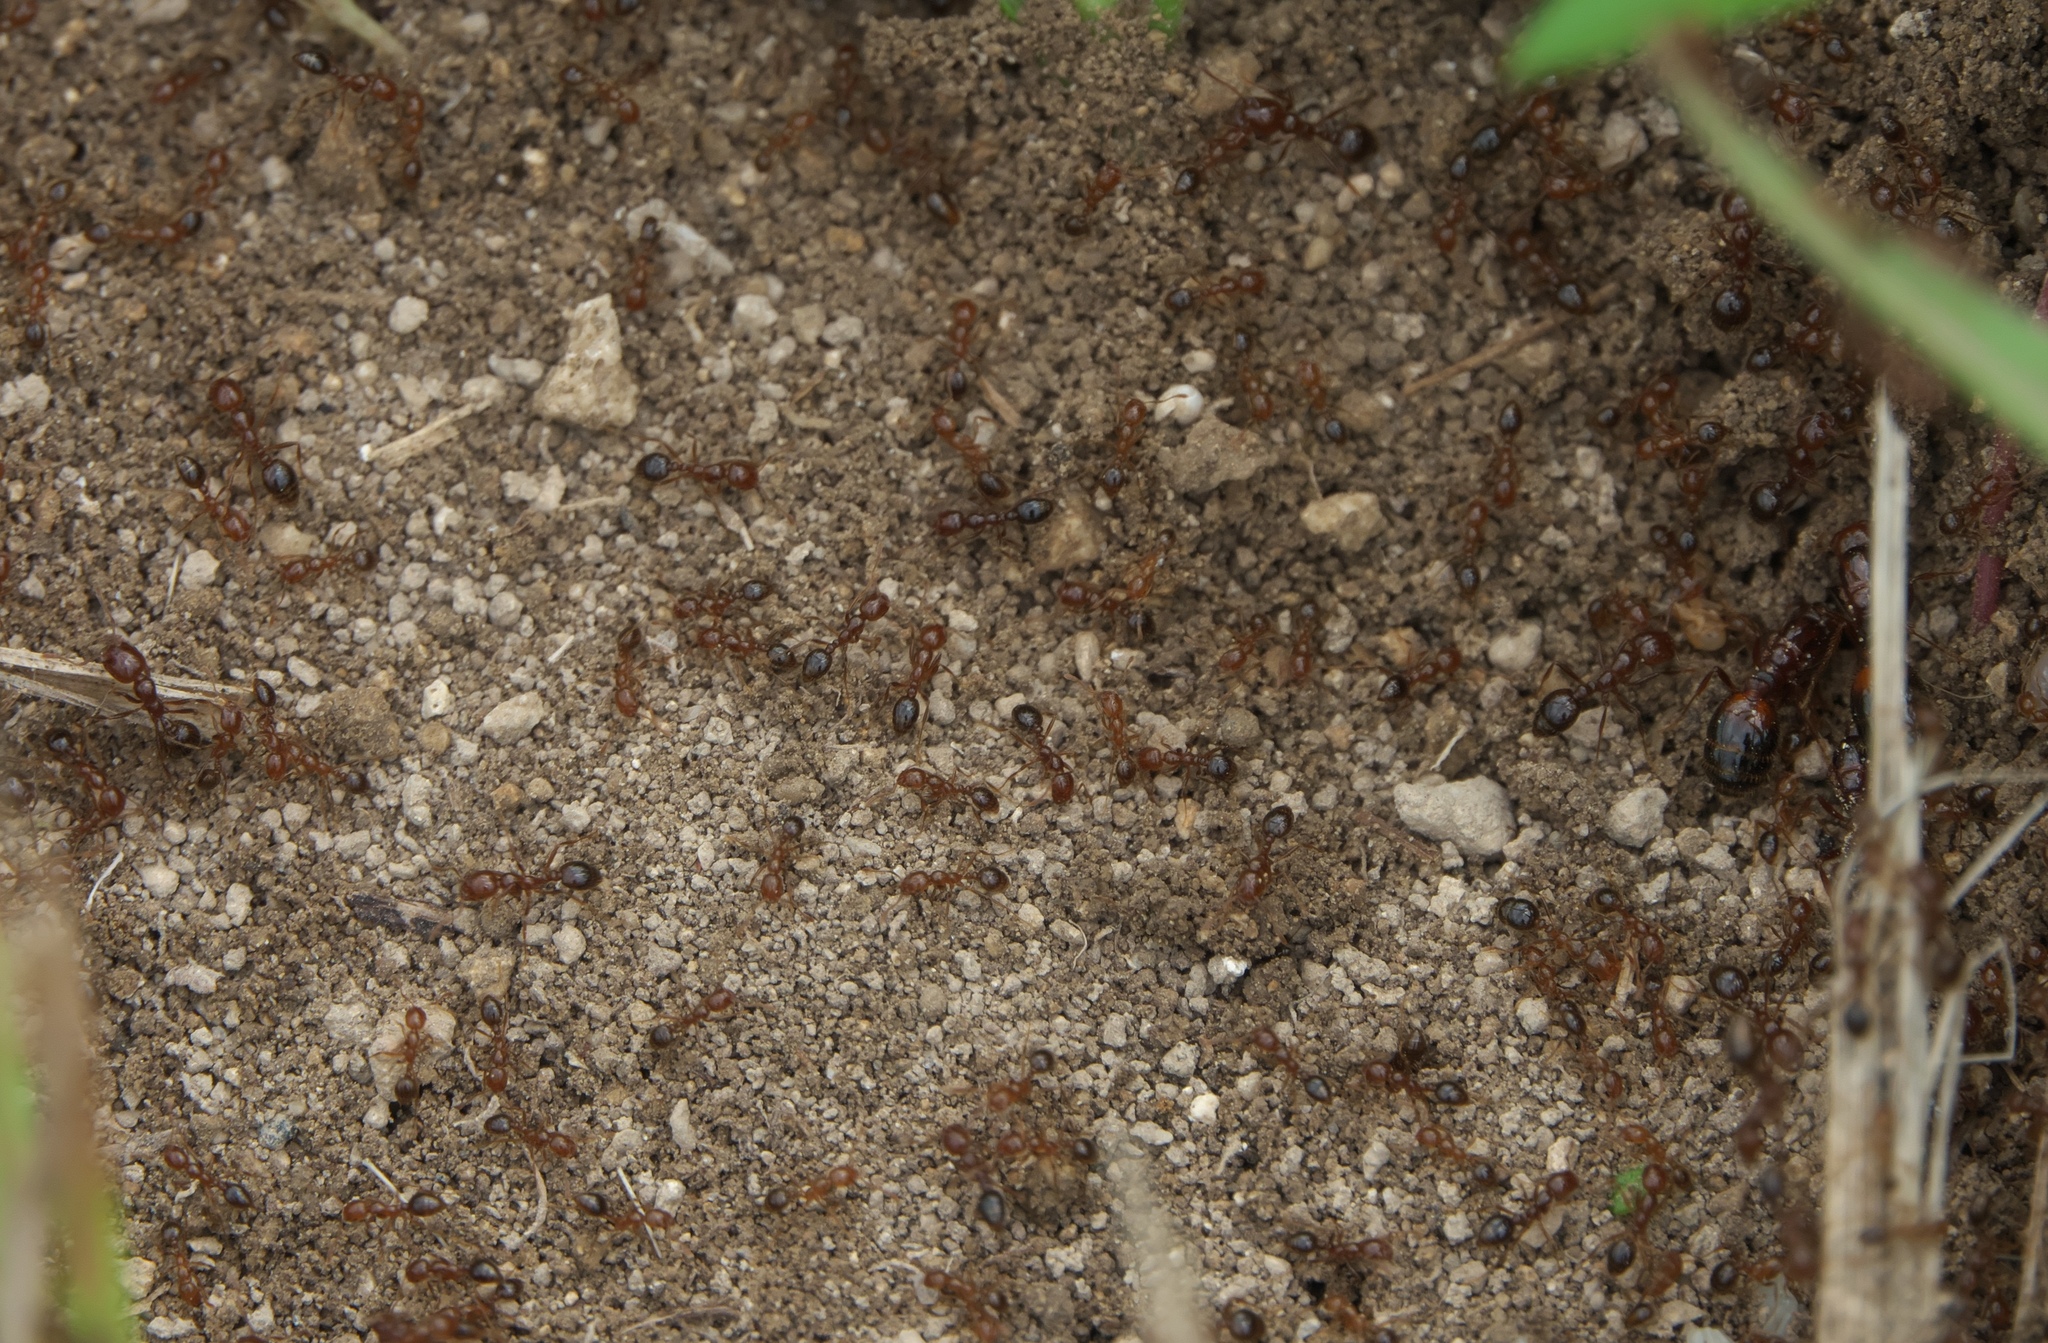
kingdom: Animalia
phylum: Arthropoda
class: Insecta
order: Hymenoptera
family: Formicidae
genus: Solenopsis
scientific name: Solenopsis invicta
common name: Red imported fire ant
